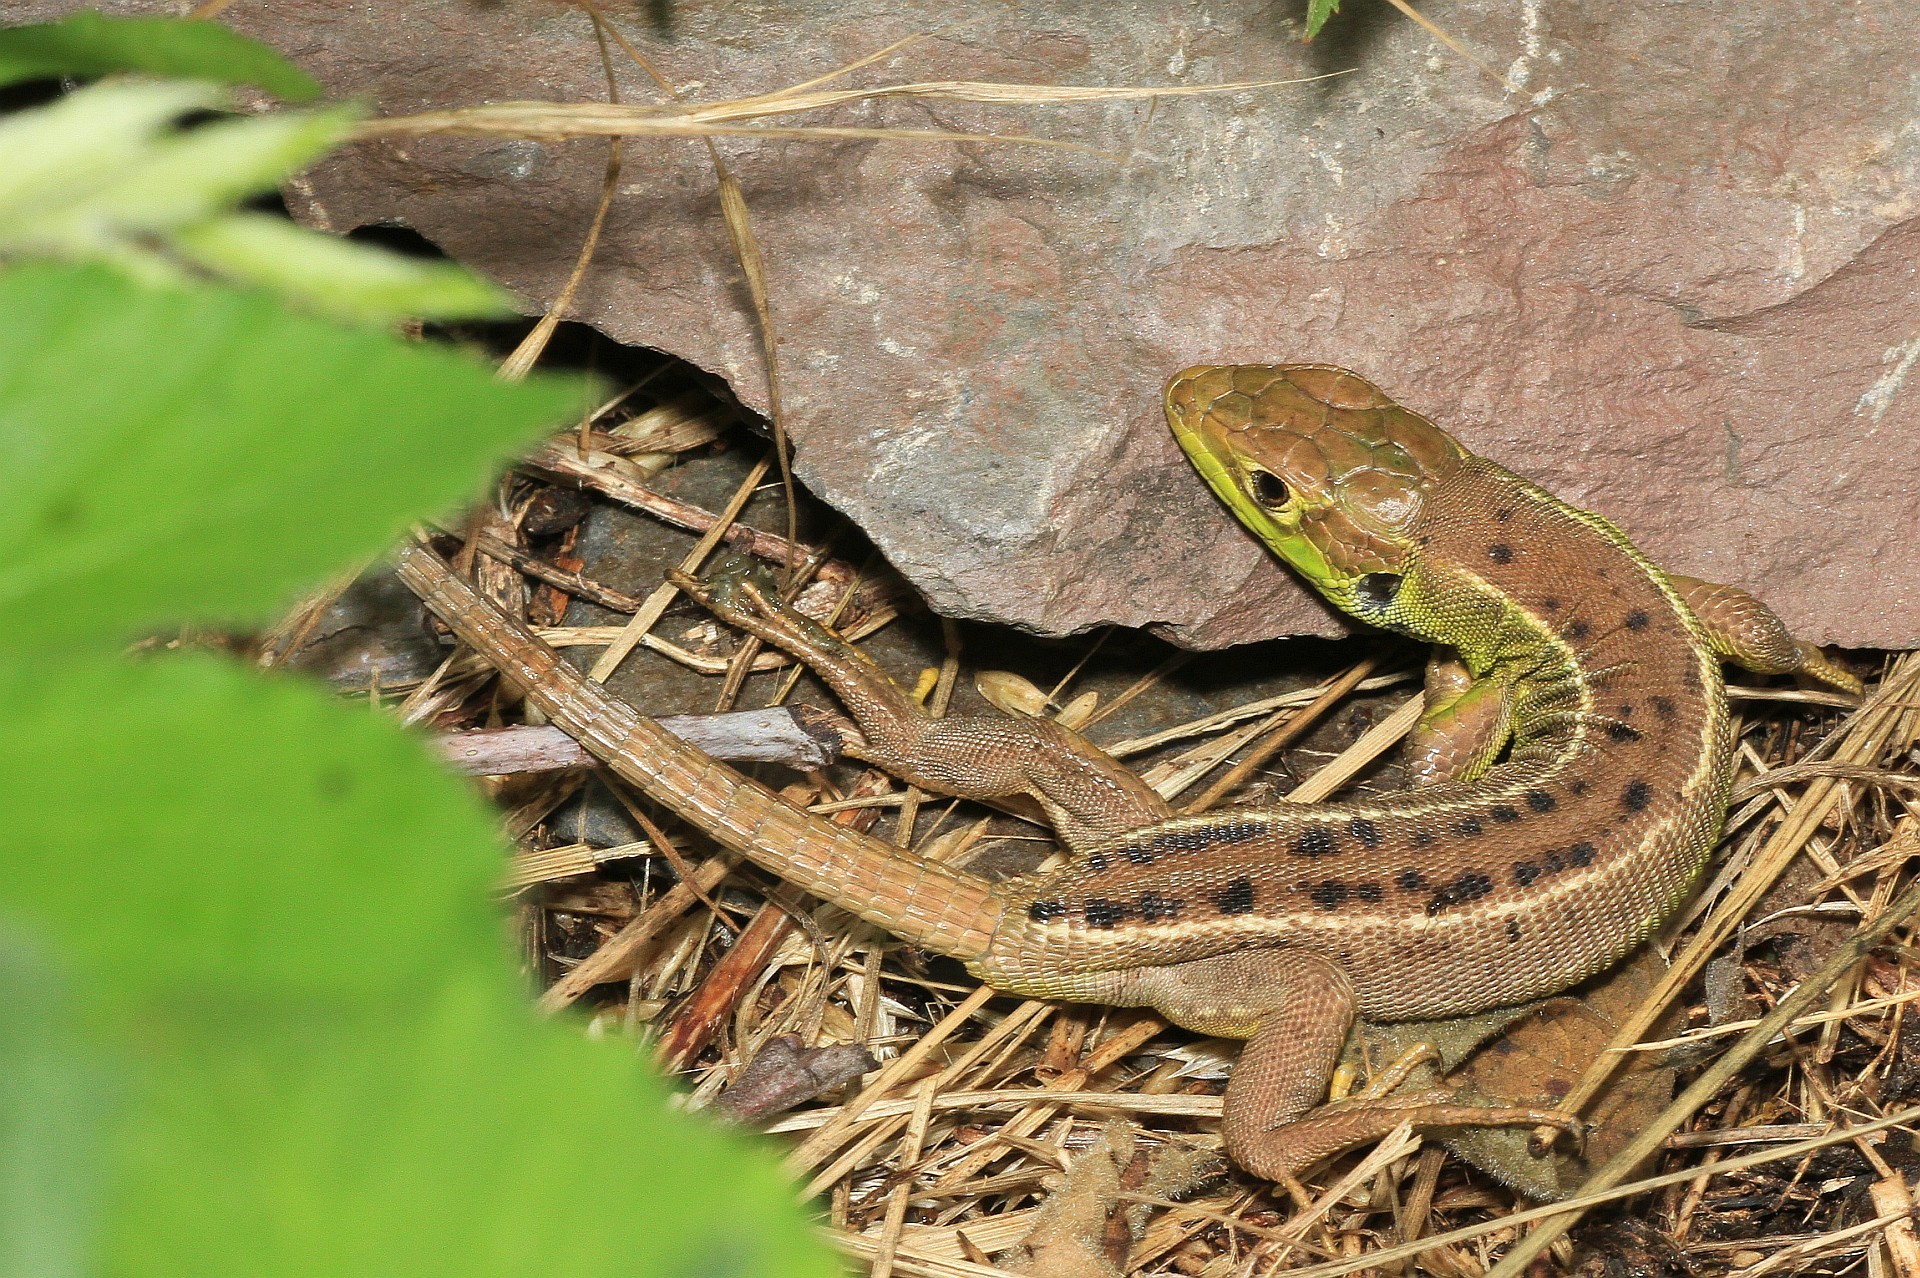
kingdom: Animalia
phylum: Chordata
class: Squamata
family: Lacertidae
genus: Lacerta
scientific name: Lacerta bilineata
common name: Western green lizard
